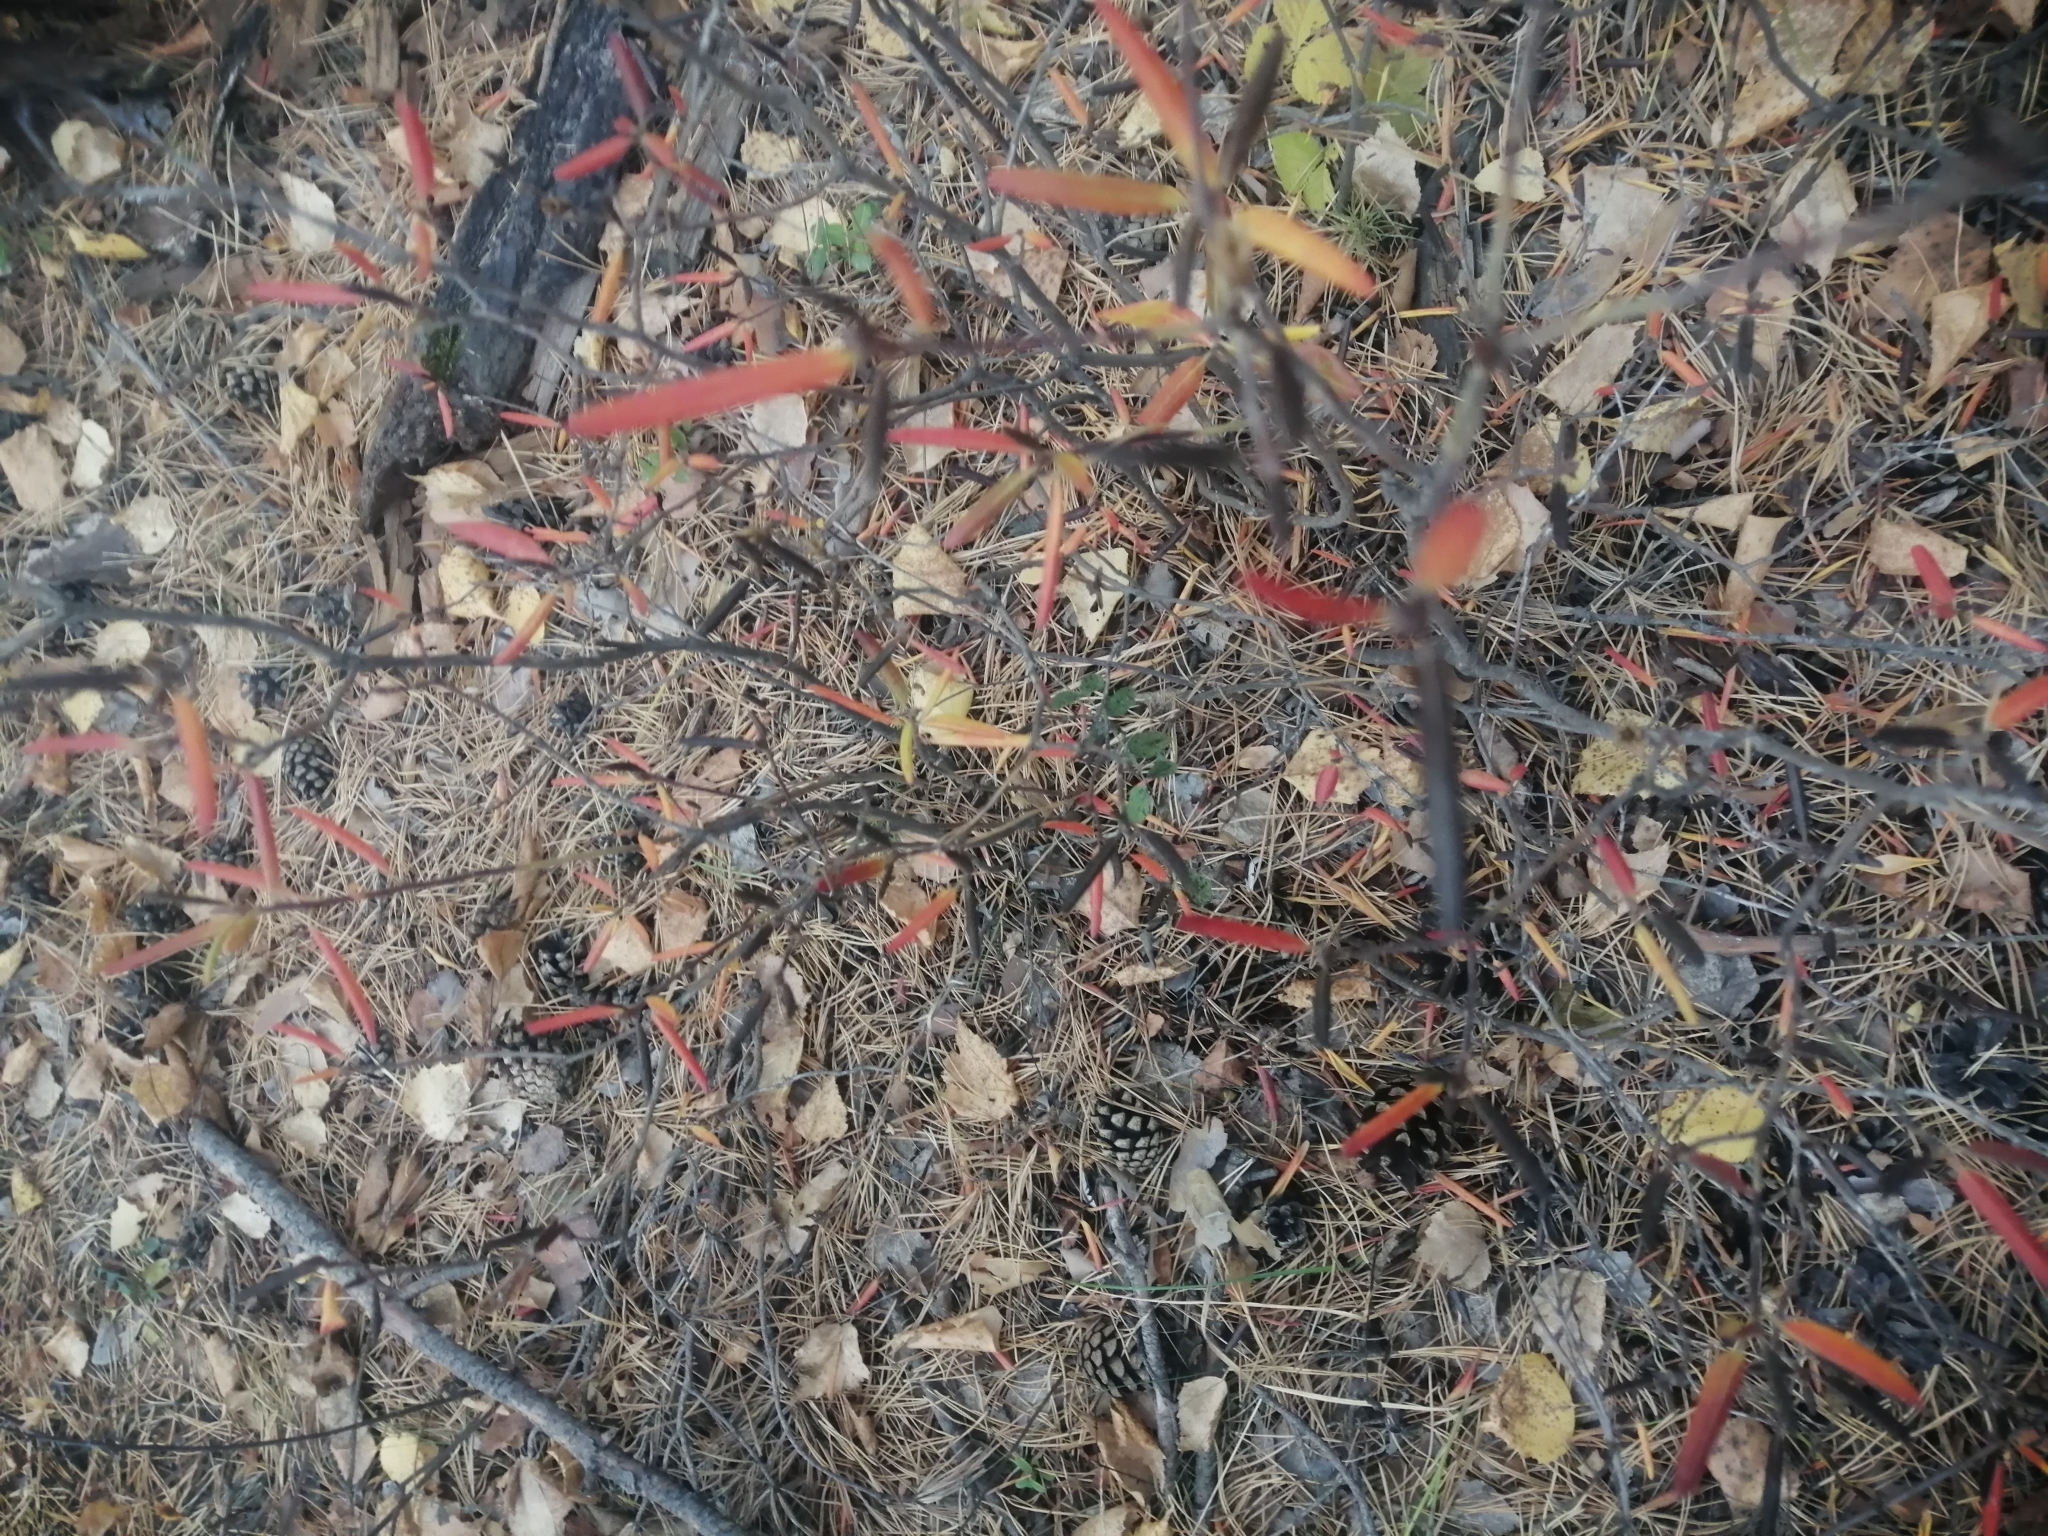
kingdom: Plantae
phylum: Tracheophyta
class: Magnoliopsida
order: Ericales
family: Ericaceae
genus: Rhododendron
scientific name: Rhododendron dauricum
